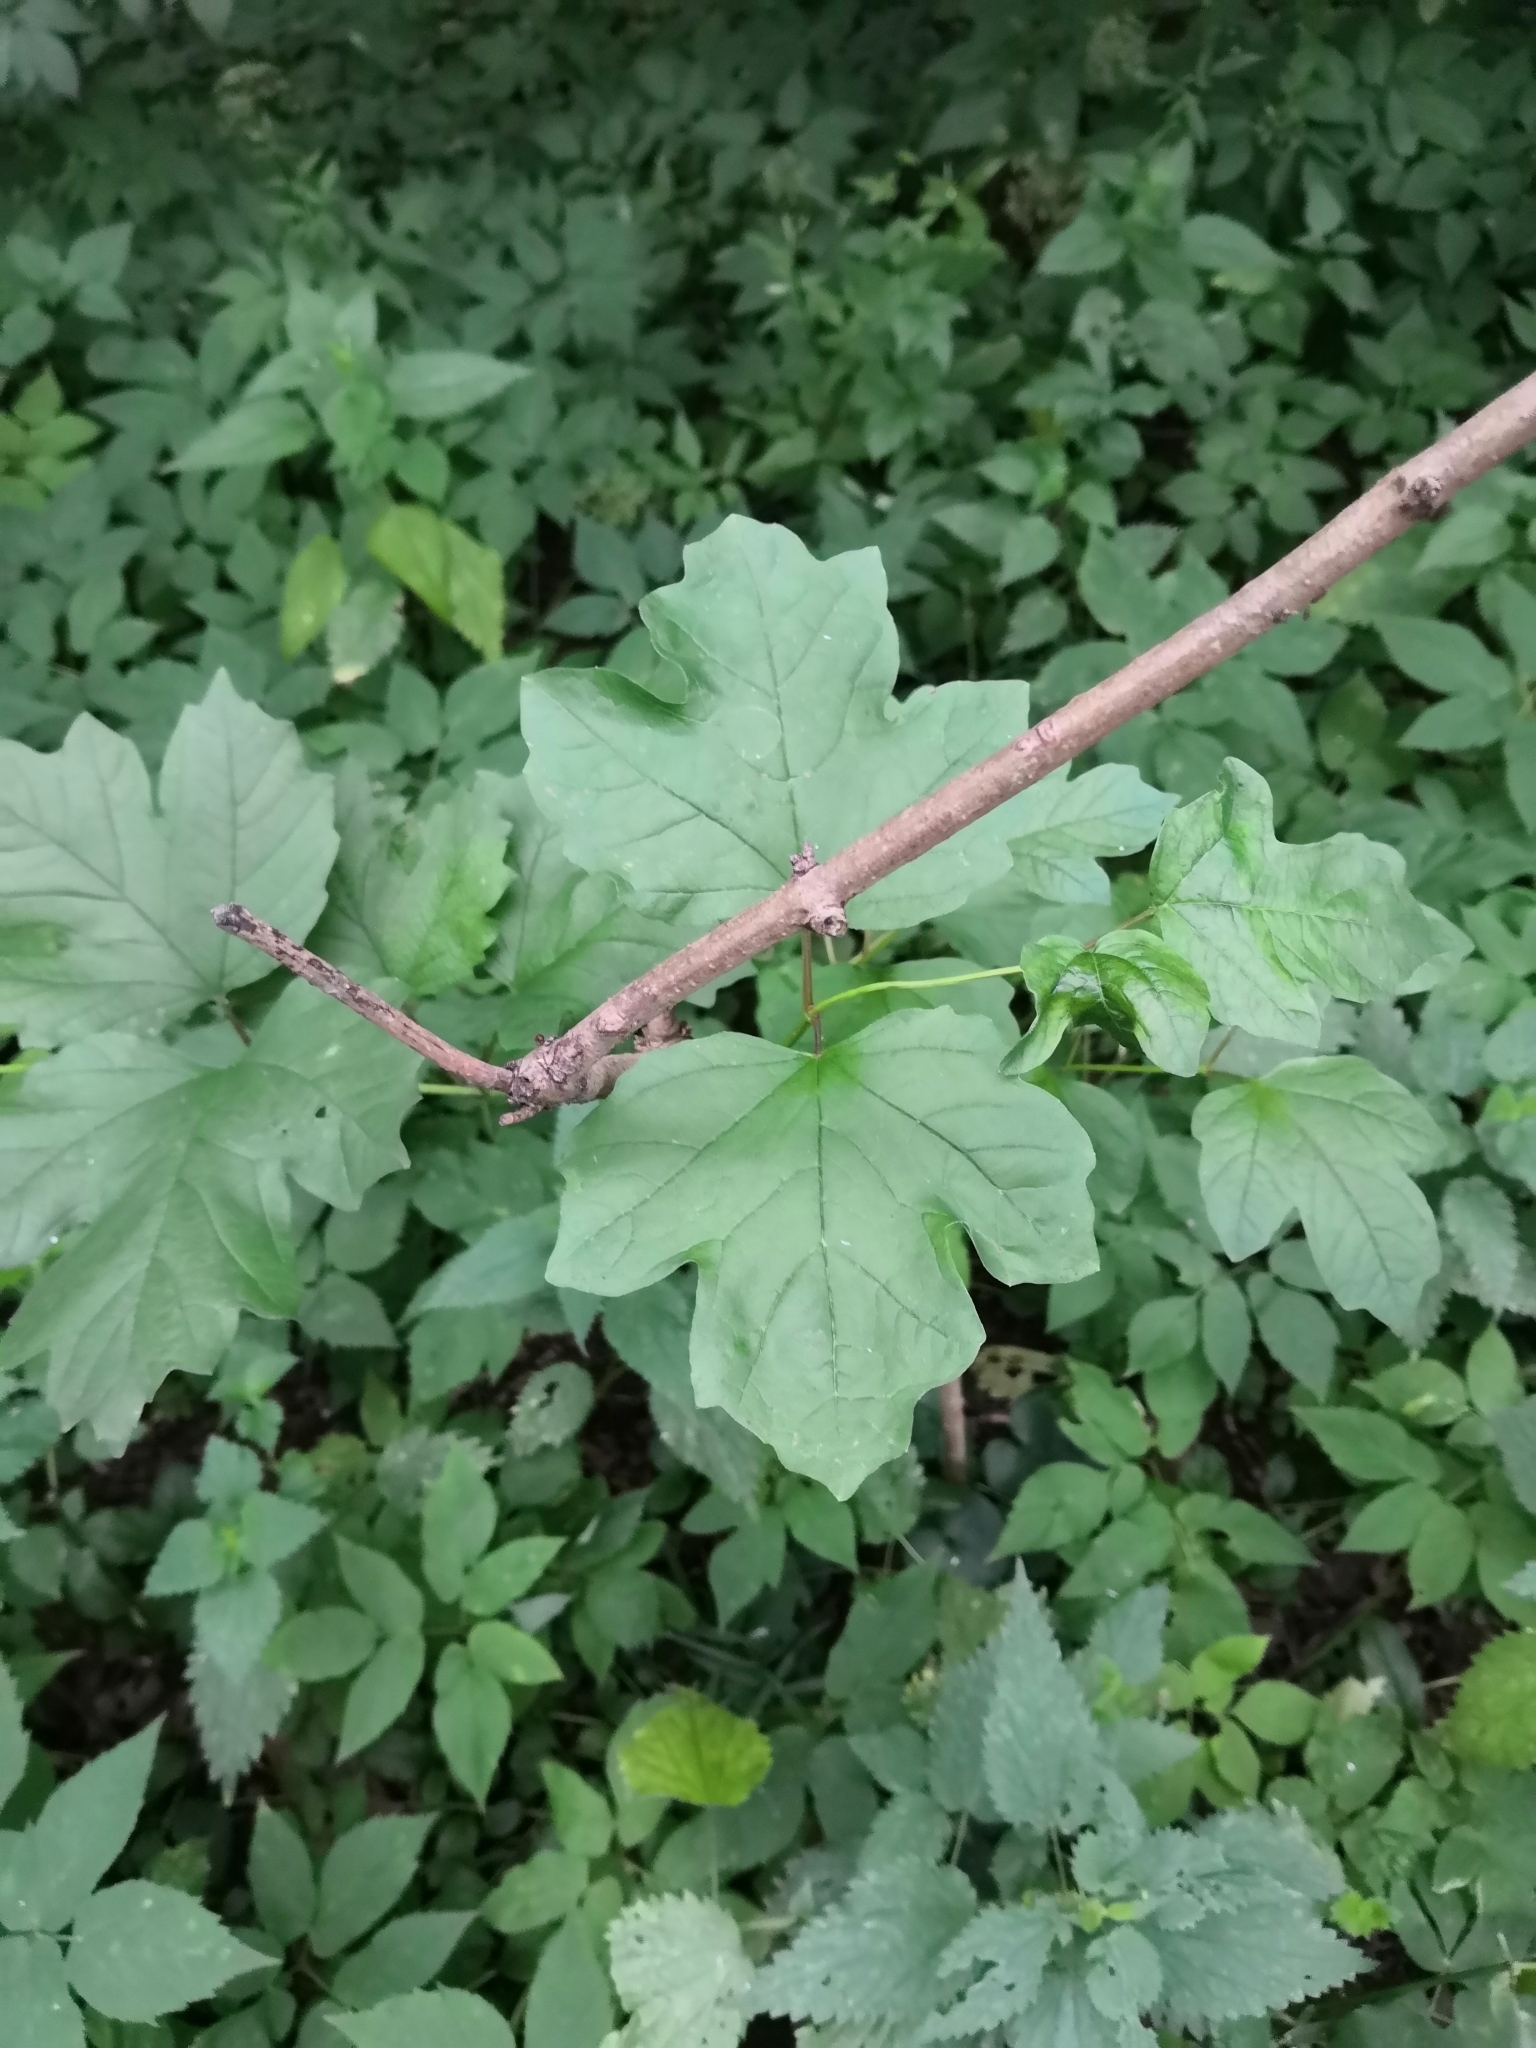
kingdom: Plantae
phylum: Tracheophyta
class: Magnoliopsida
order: Dipsacales
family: Viburnaceae
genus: Viburnum
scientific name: Viburnum opulus
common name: Guelder-rose
